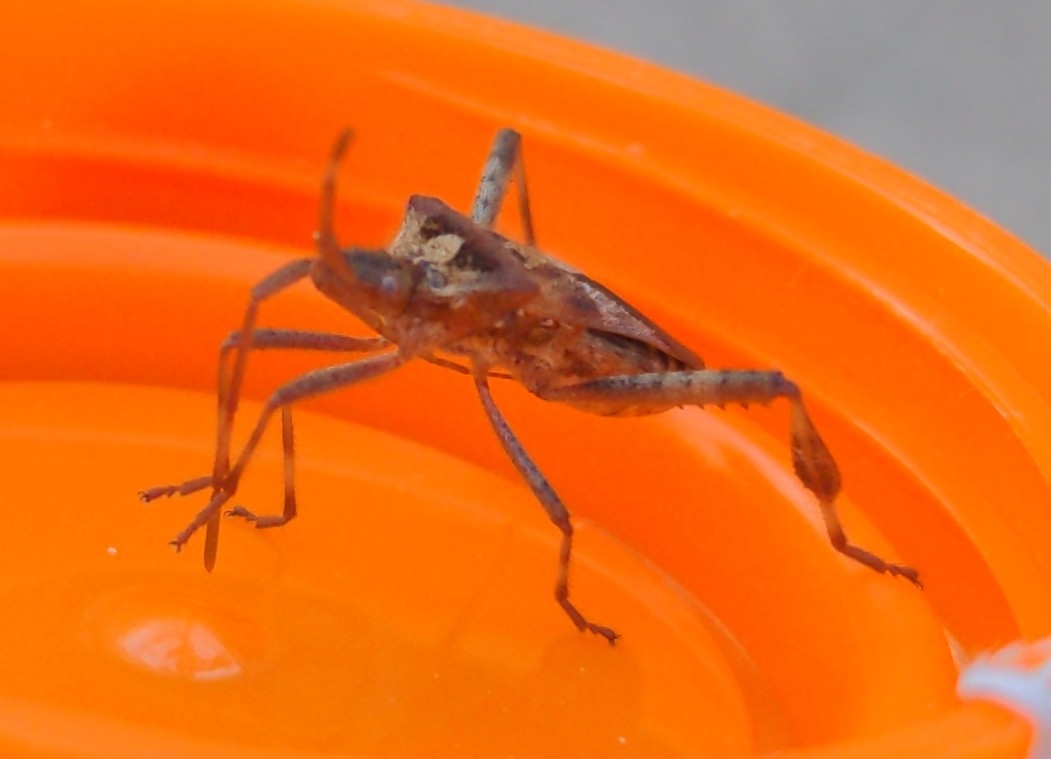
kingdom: Animalia
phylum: Arthropoda
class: Insecta
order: Hemiptera
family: Coreidae
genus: Leptoglossus
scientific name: Leptoglossus occidentalis
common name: Western conifer-seed bug
